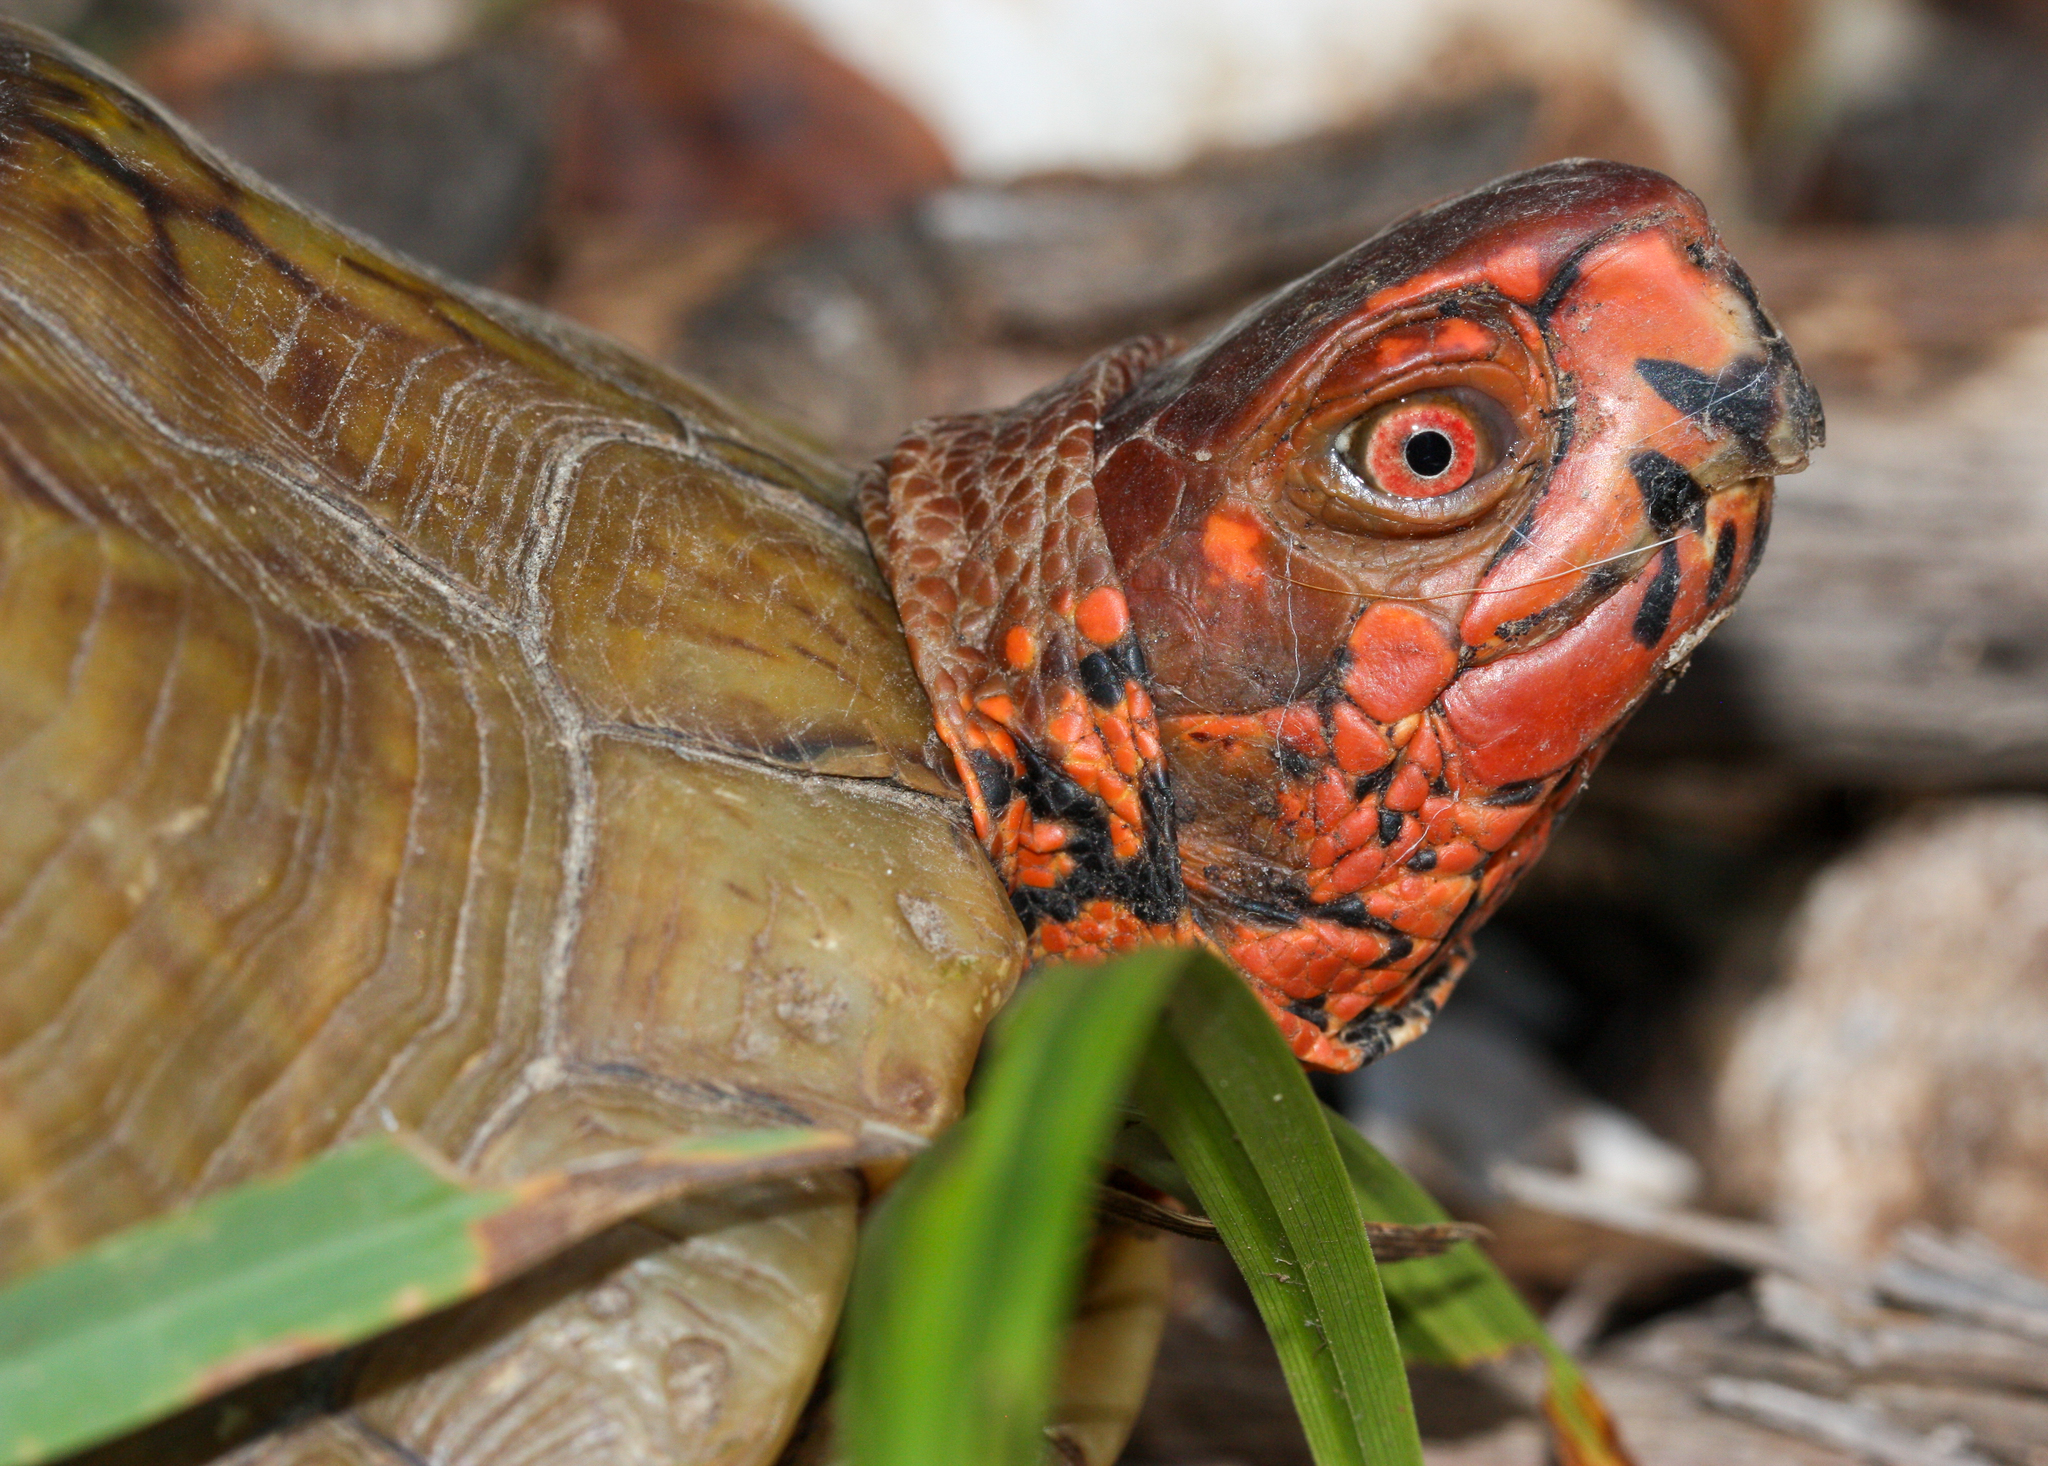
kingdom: Animalia
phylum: Chordata
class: Testudines
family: Emydidae
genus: Terrapene
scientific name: Terrapene carolina
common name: Common box turtle
